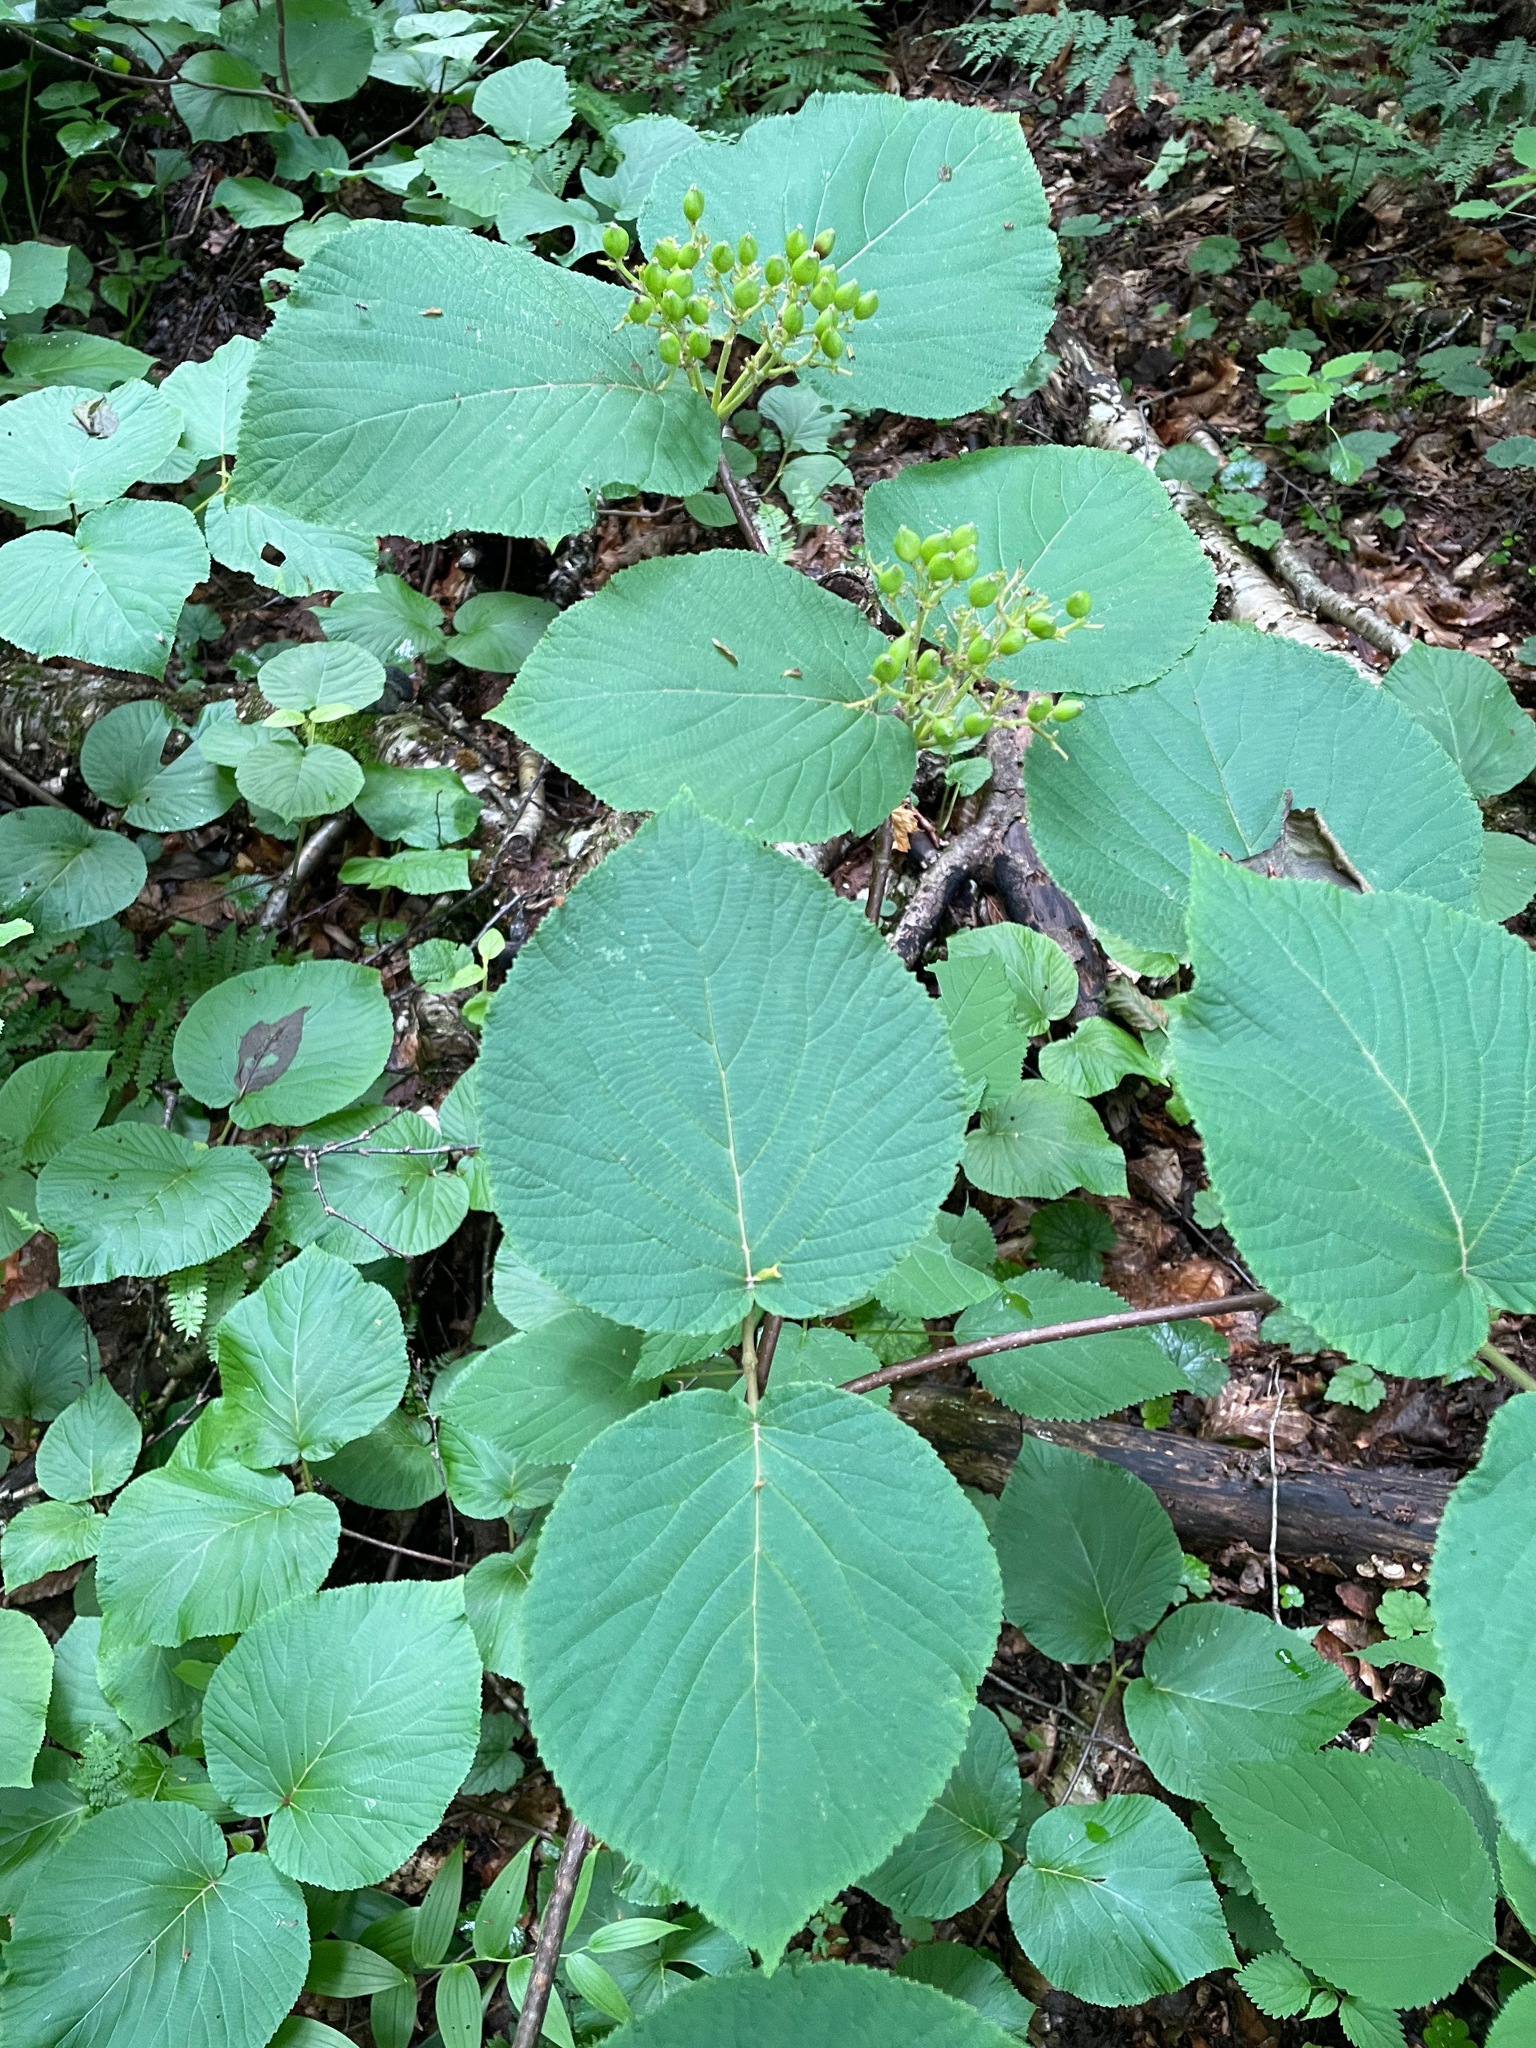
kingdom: Plantae
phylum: Tracheophyta
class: Magnoliopsida
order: Dipsacales
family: Viburnaceae
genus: Viburnum
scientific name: Viburnum lantanoides
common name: Hobblebush
